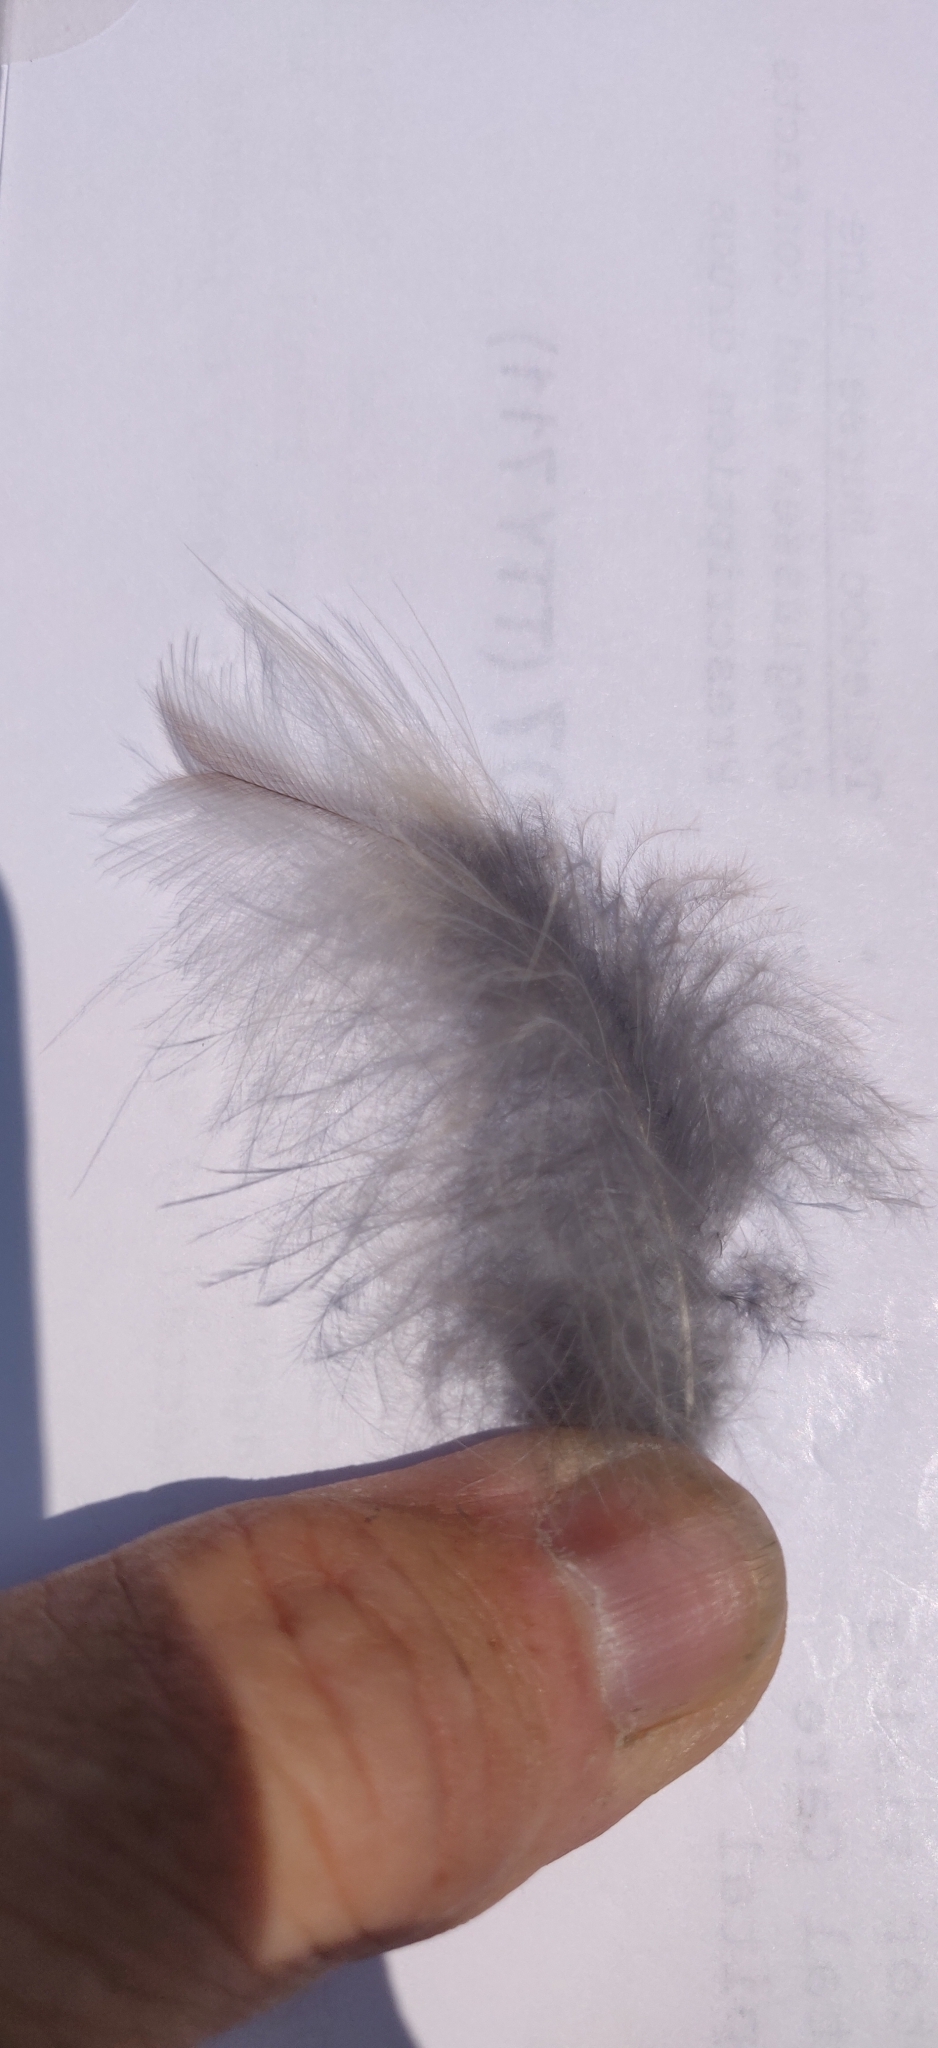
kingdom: Animalia
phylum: Chordata
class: Aves
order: Strigiformes
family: Strigidae
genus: Strix
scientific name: Strix varia
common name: Barred owl
